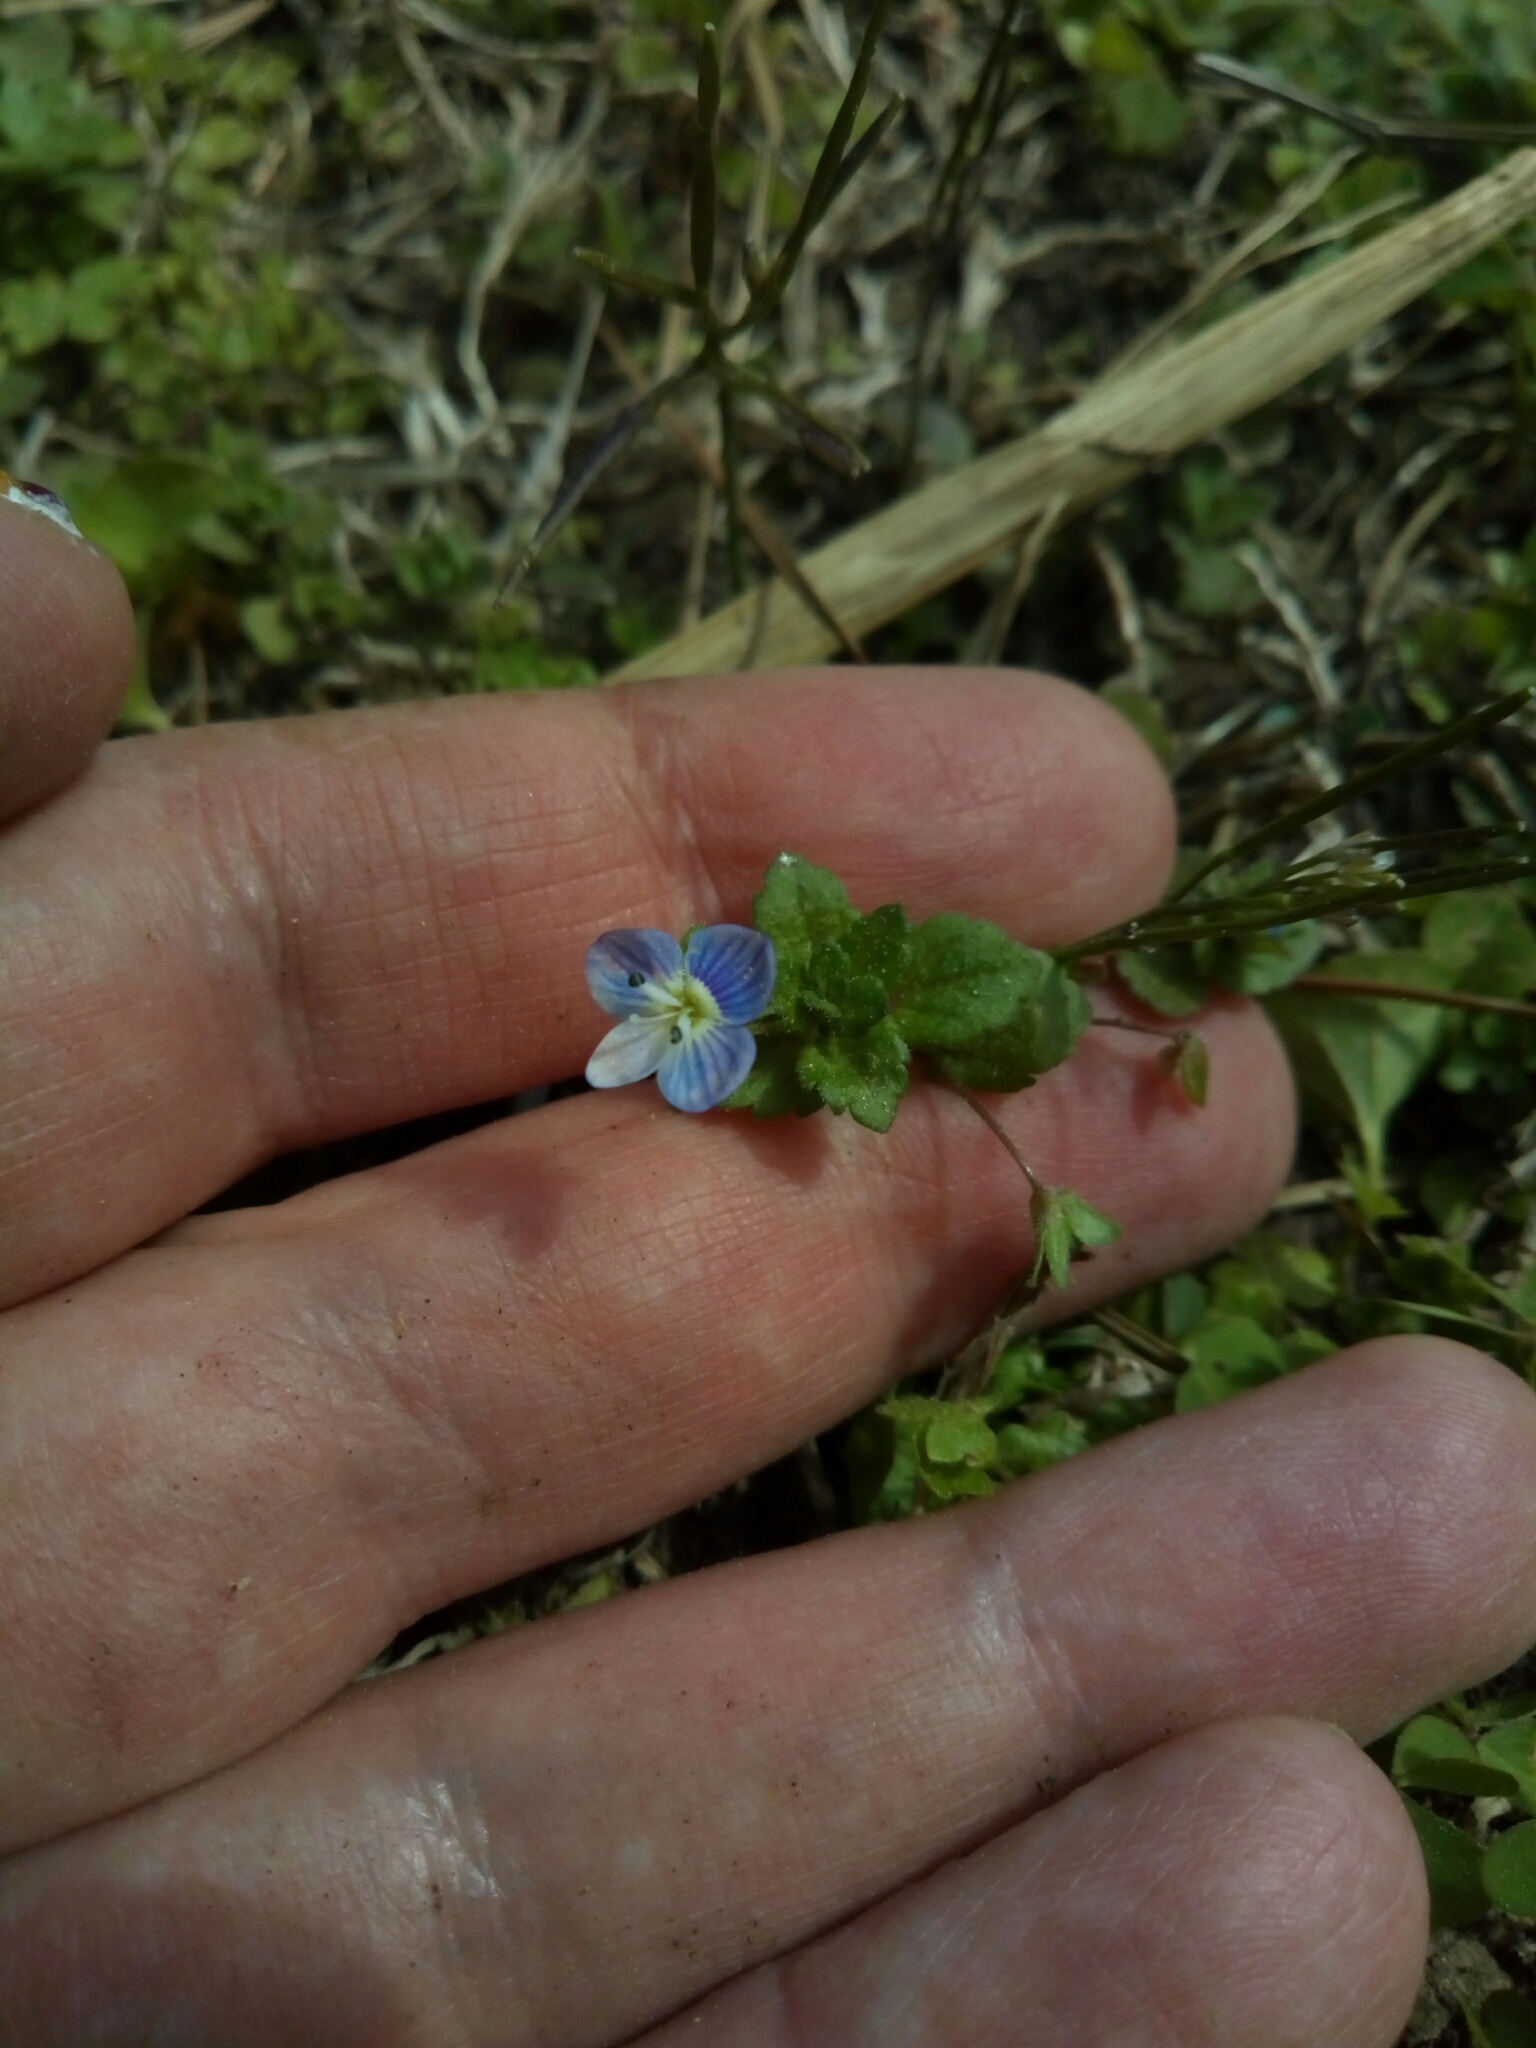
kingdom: Plantae
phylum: Tracheophyta
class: Magnoliopsida
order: Lamiales
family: Plantaginaceae
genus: Veronica
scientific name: Veronica persica
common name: Common field-speedwell
